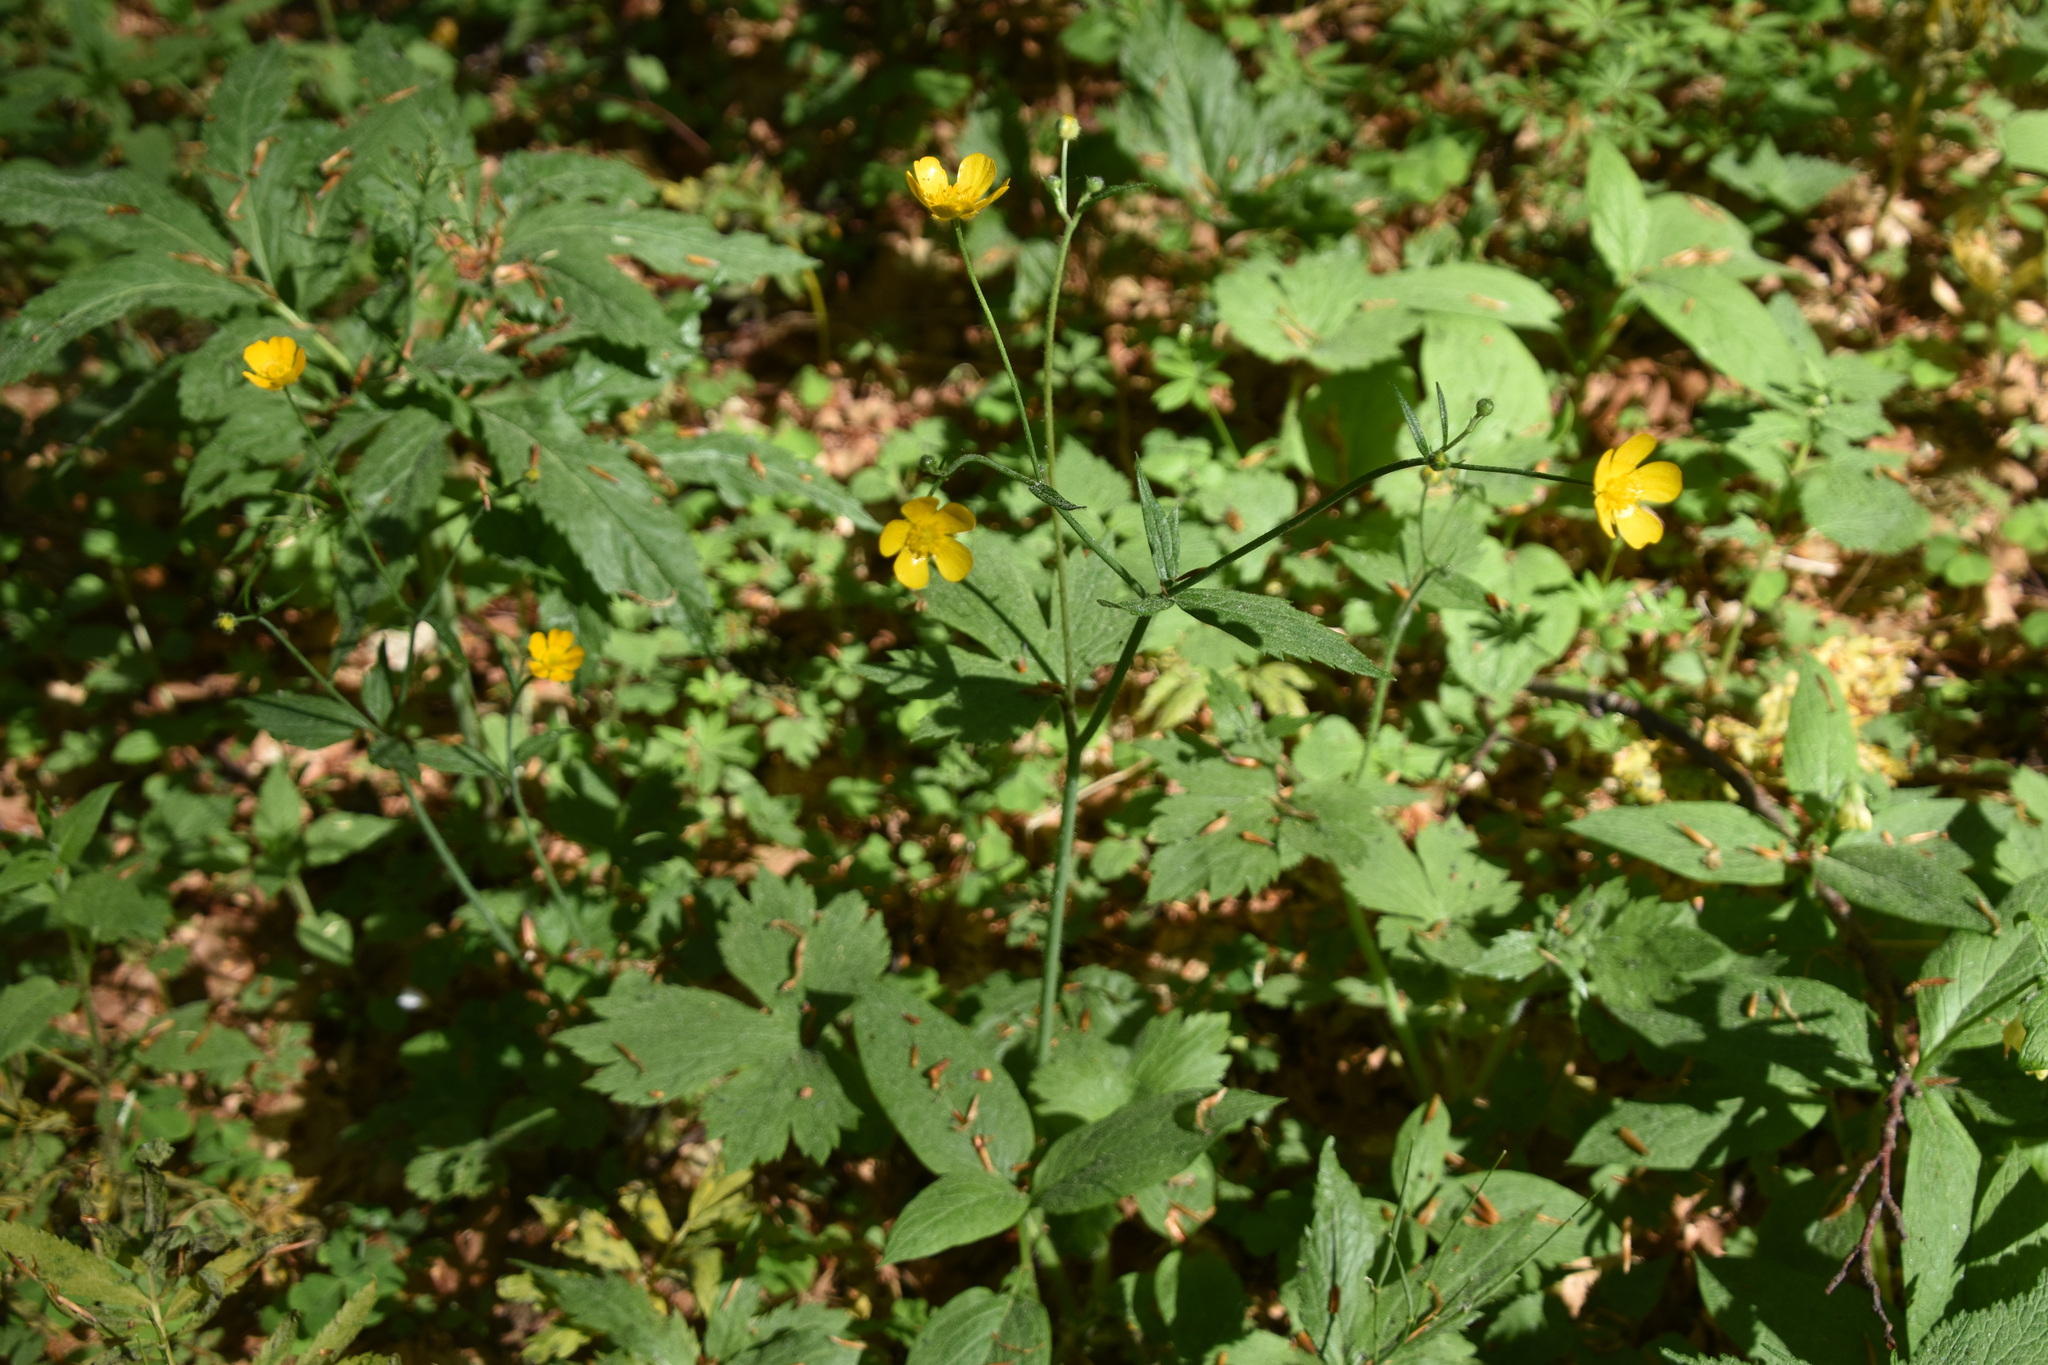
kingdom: Plantae
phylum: Tracheophyta
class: Magnoliopsida
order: Ranunculales
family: Ranunculaceae
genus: Ranunculus
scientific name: Ranunculus lanuginosus
